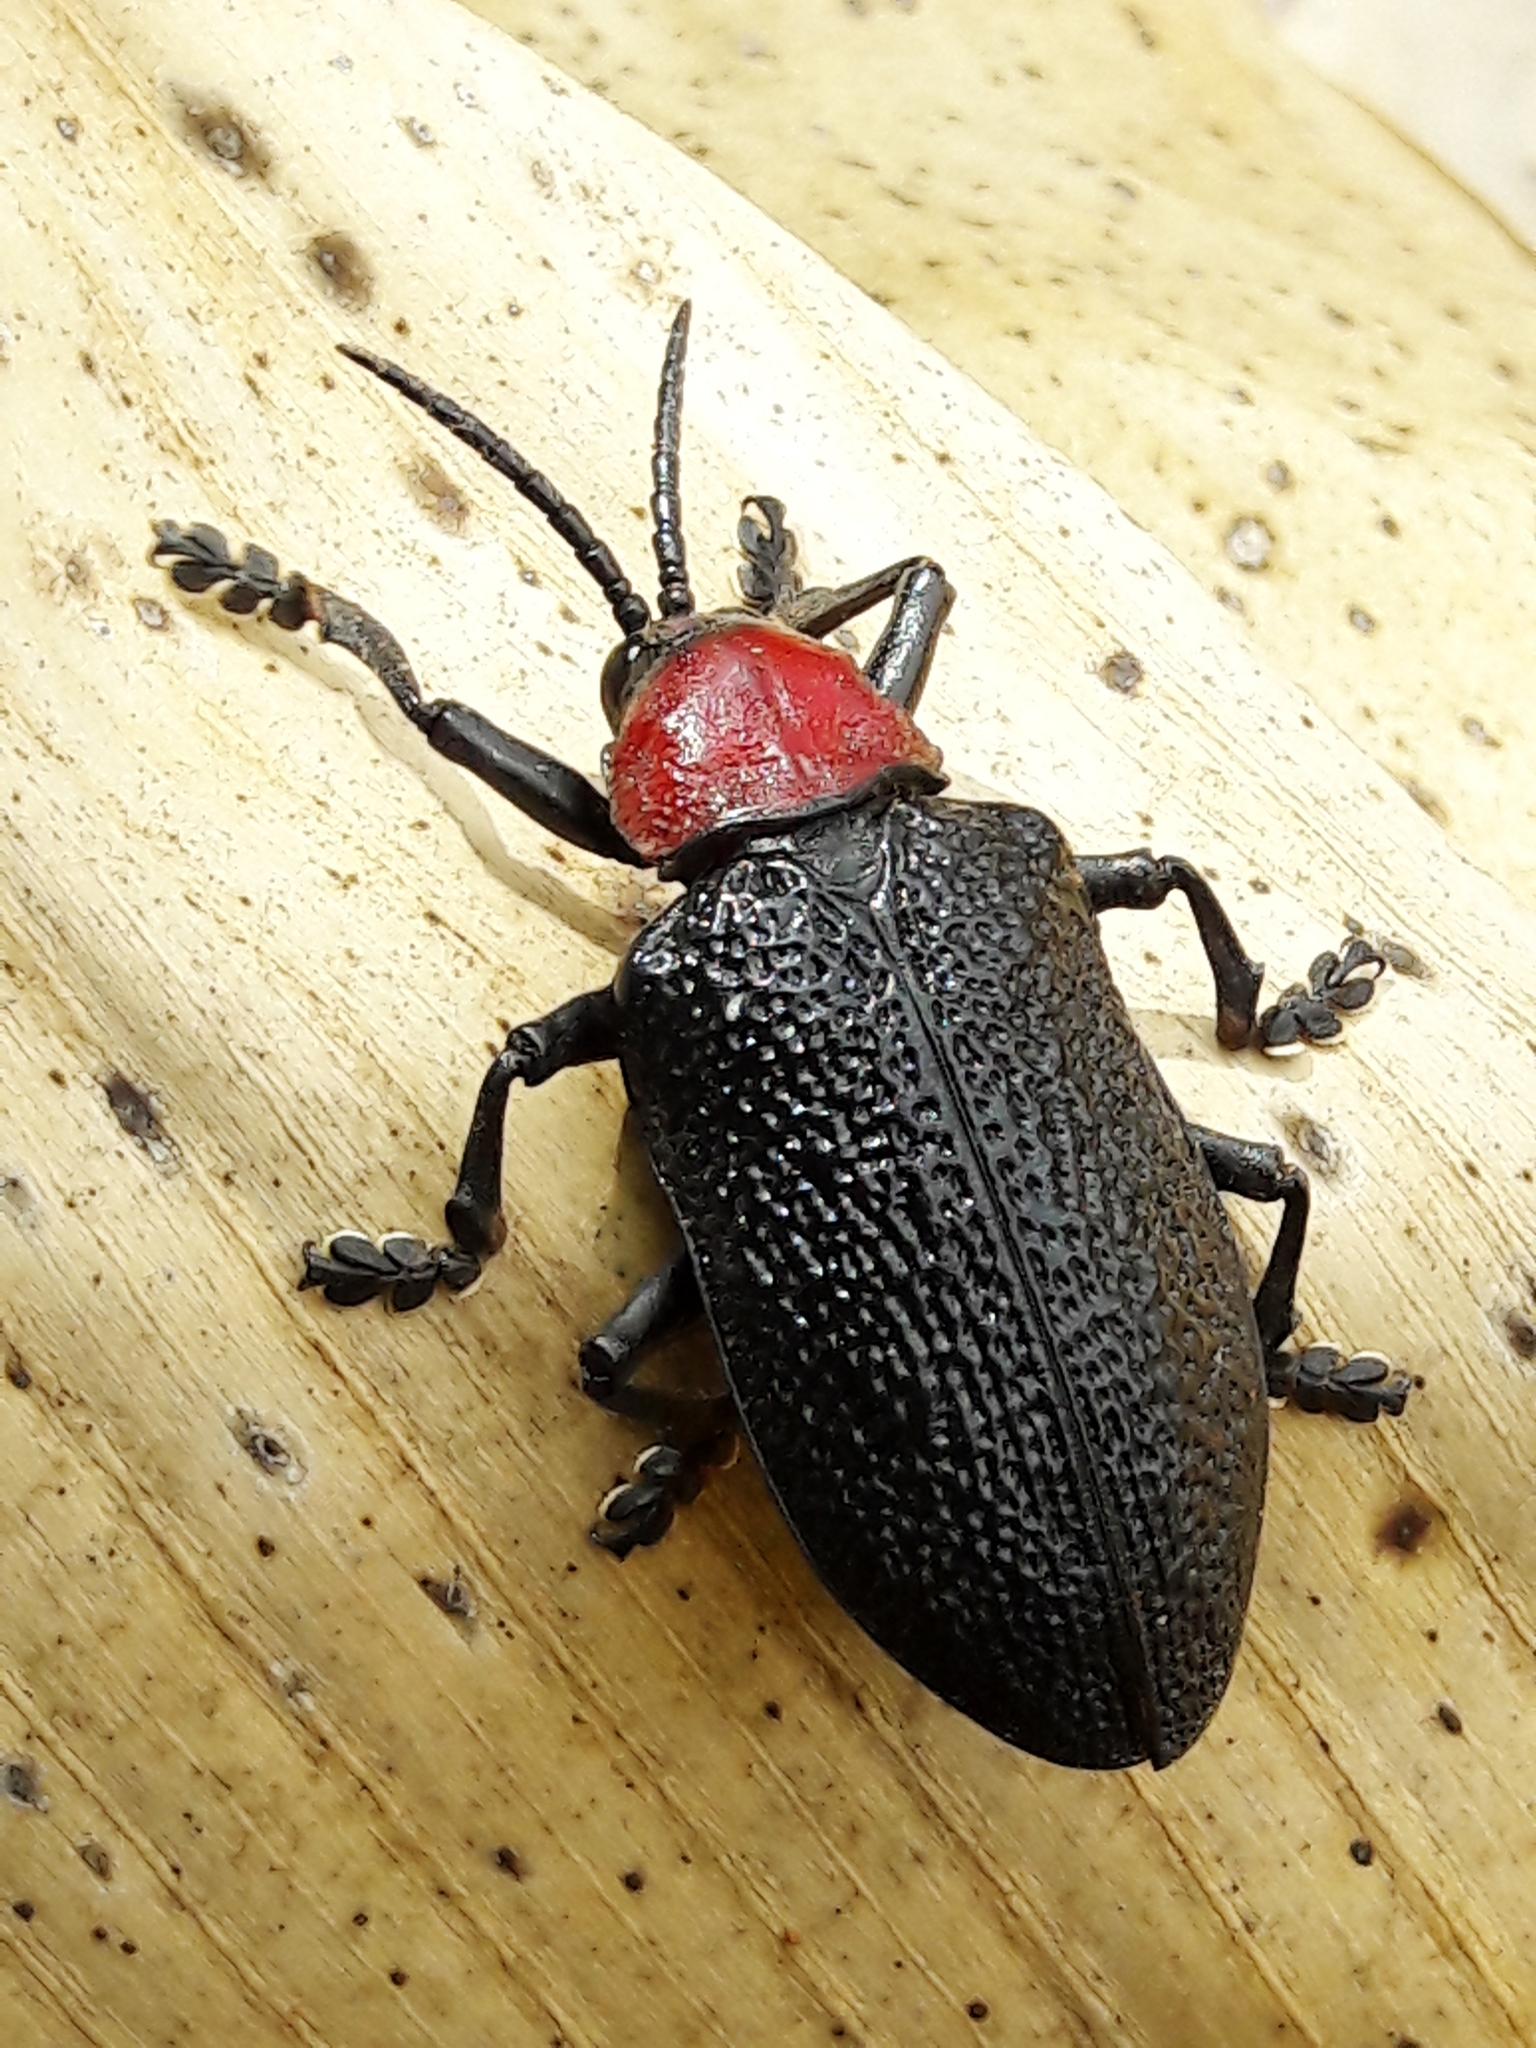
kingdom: Animalia
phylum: Arthropoda
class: Insecta
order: Coleoptera
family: Chrysomelidae
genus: Coraliomela
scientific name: Coraliomela brunnea
